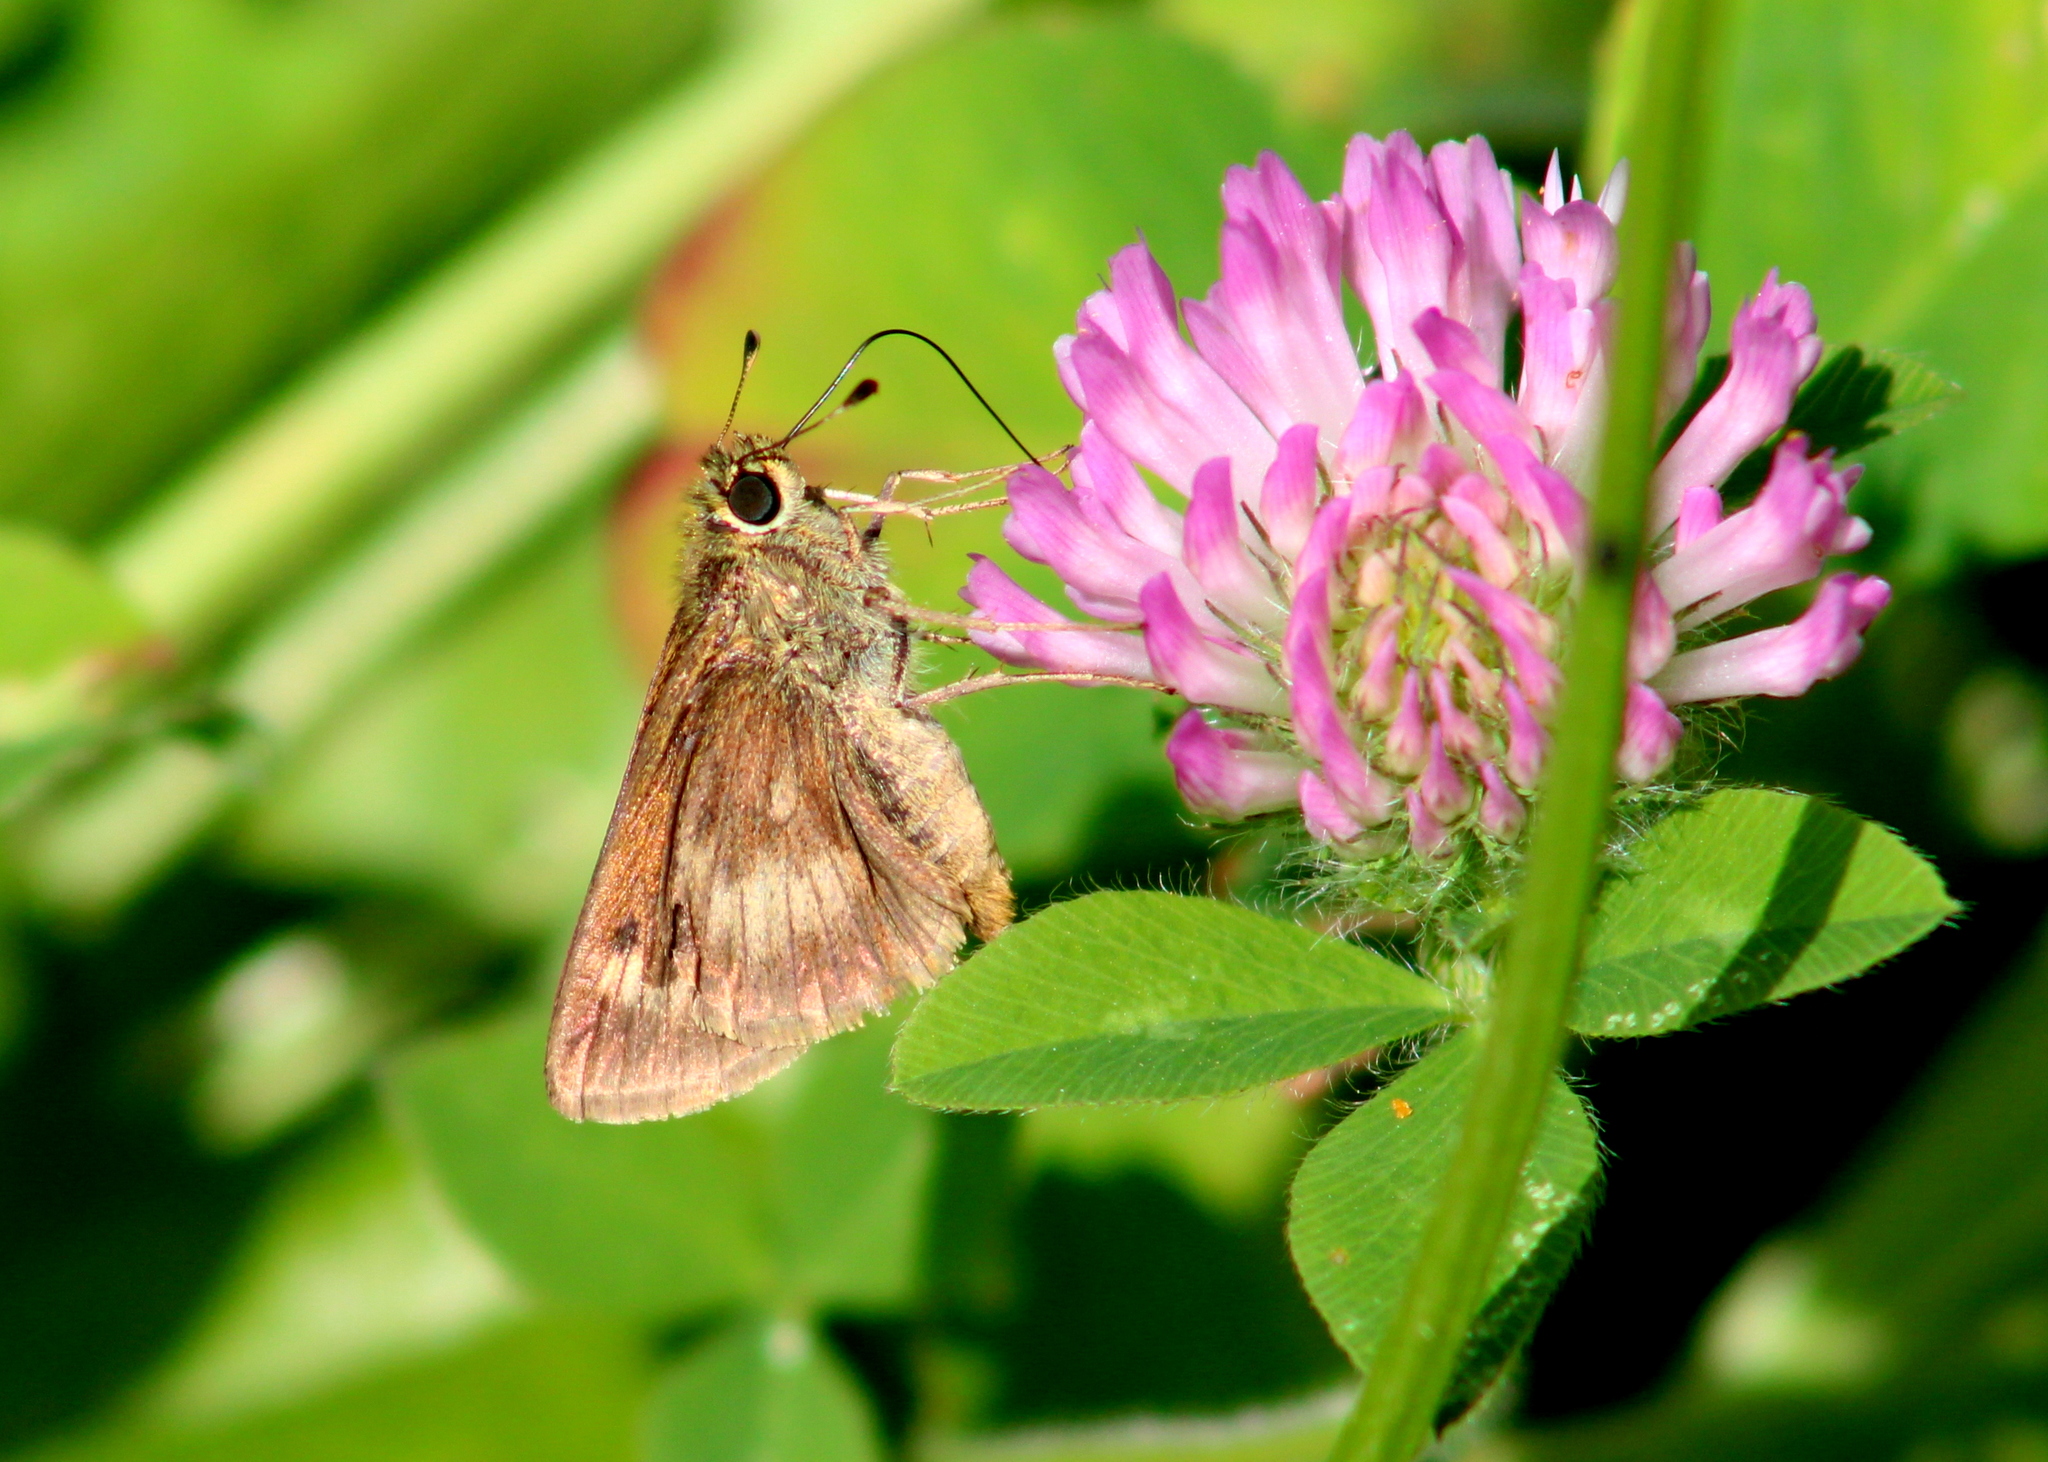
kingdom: Animalia
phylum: Arthropoda
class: Insecta
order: Lepidoptera
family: Hesperiidae
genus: Polites
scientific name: Polites mystic
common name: Long dash
